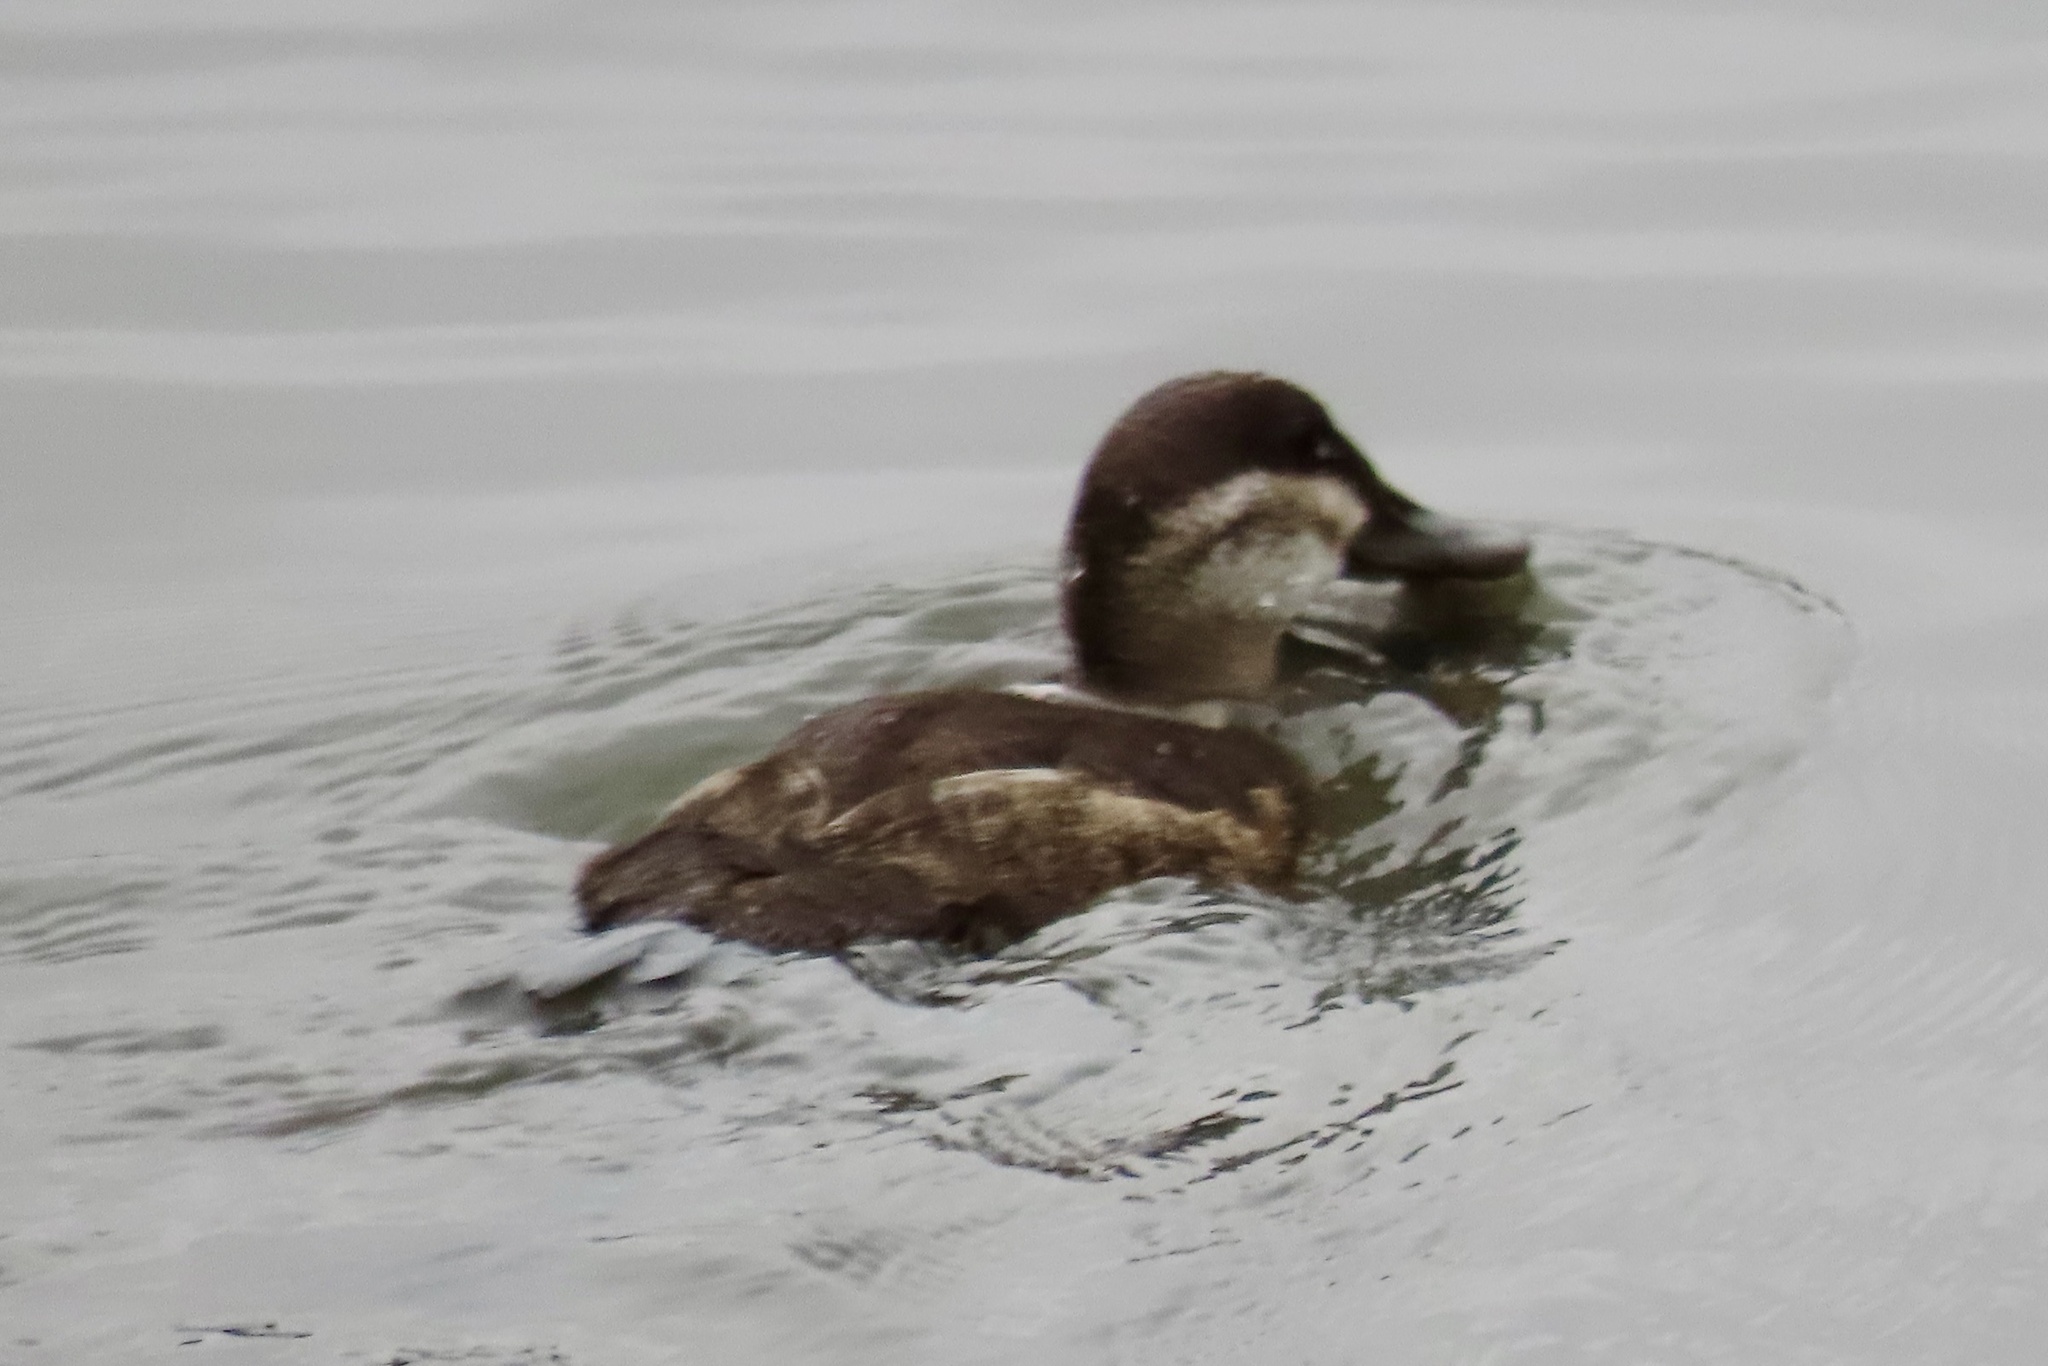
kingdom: Animalia
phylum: Chordata
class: Aves
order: Anseriformes
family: Anatidae
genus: Oxyura
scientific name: Oxyura jamaicensis
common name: Ruddy duck
